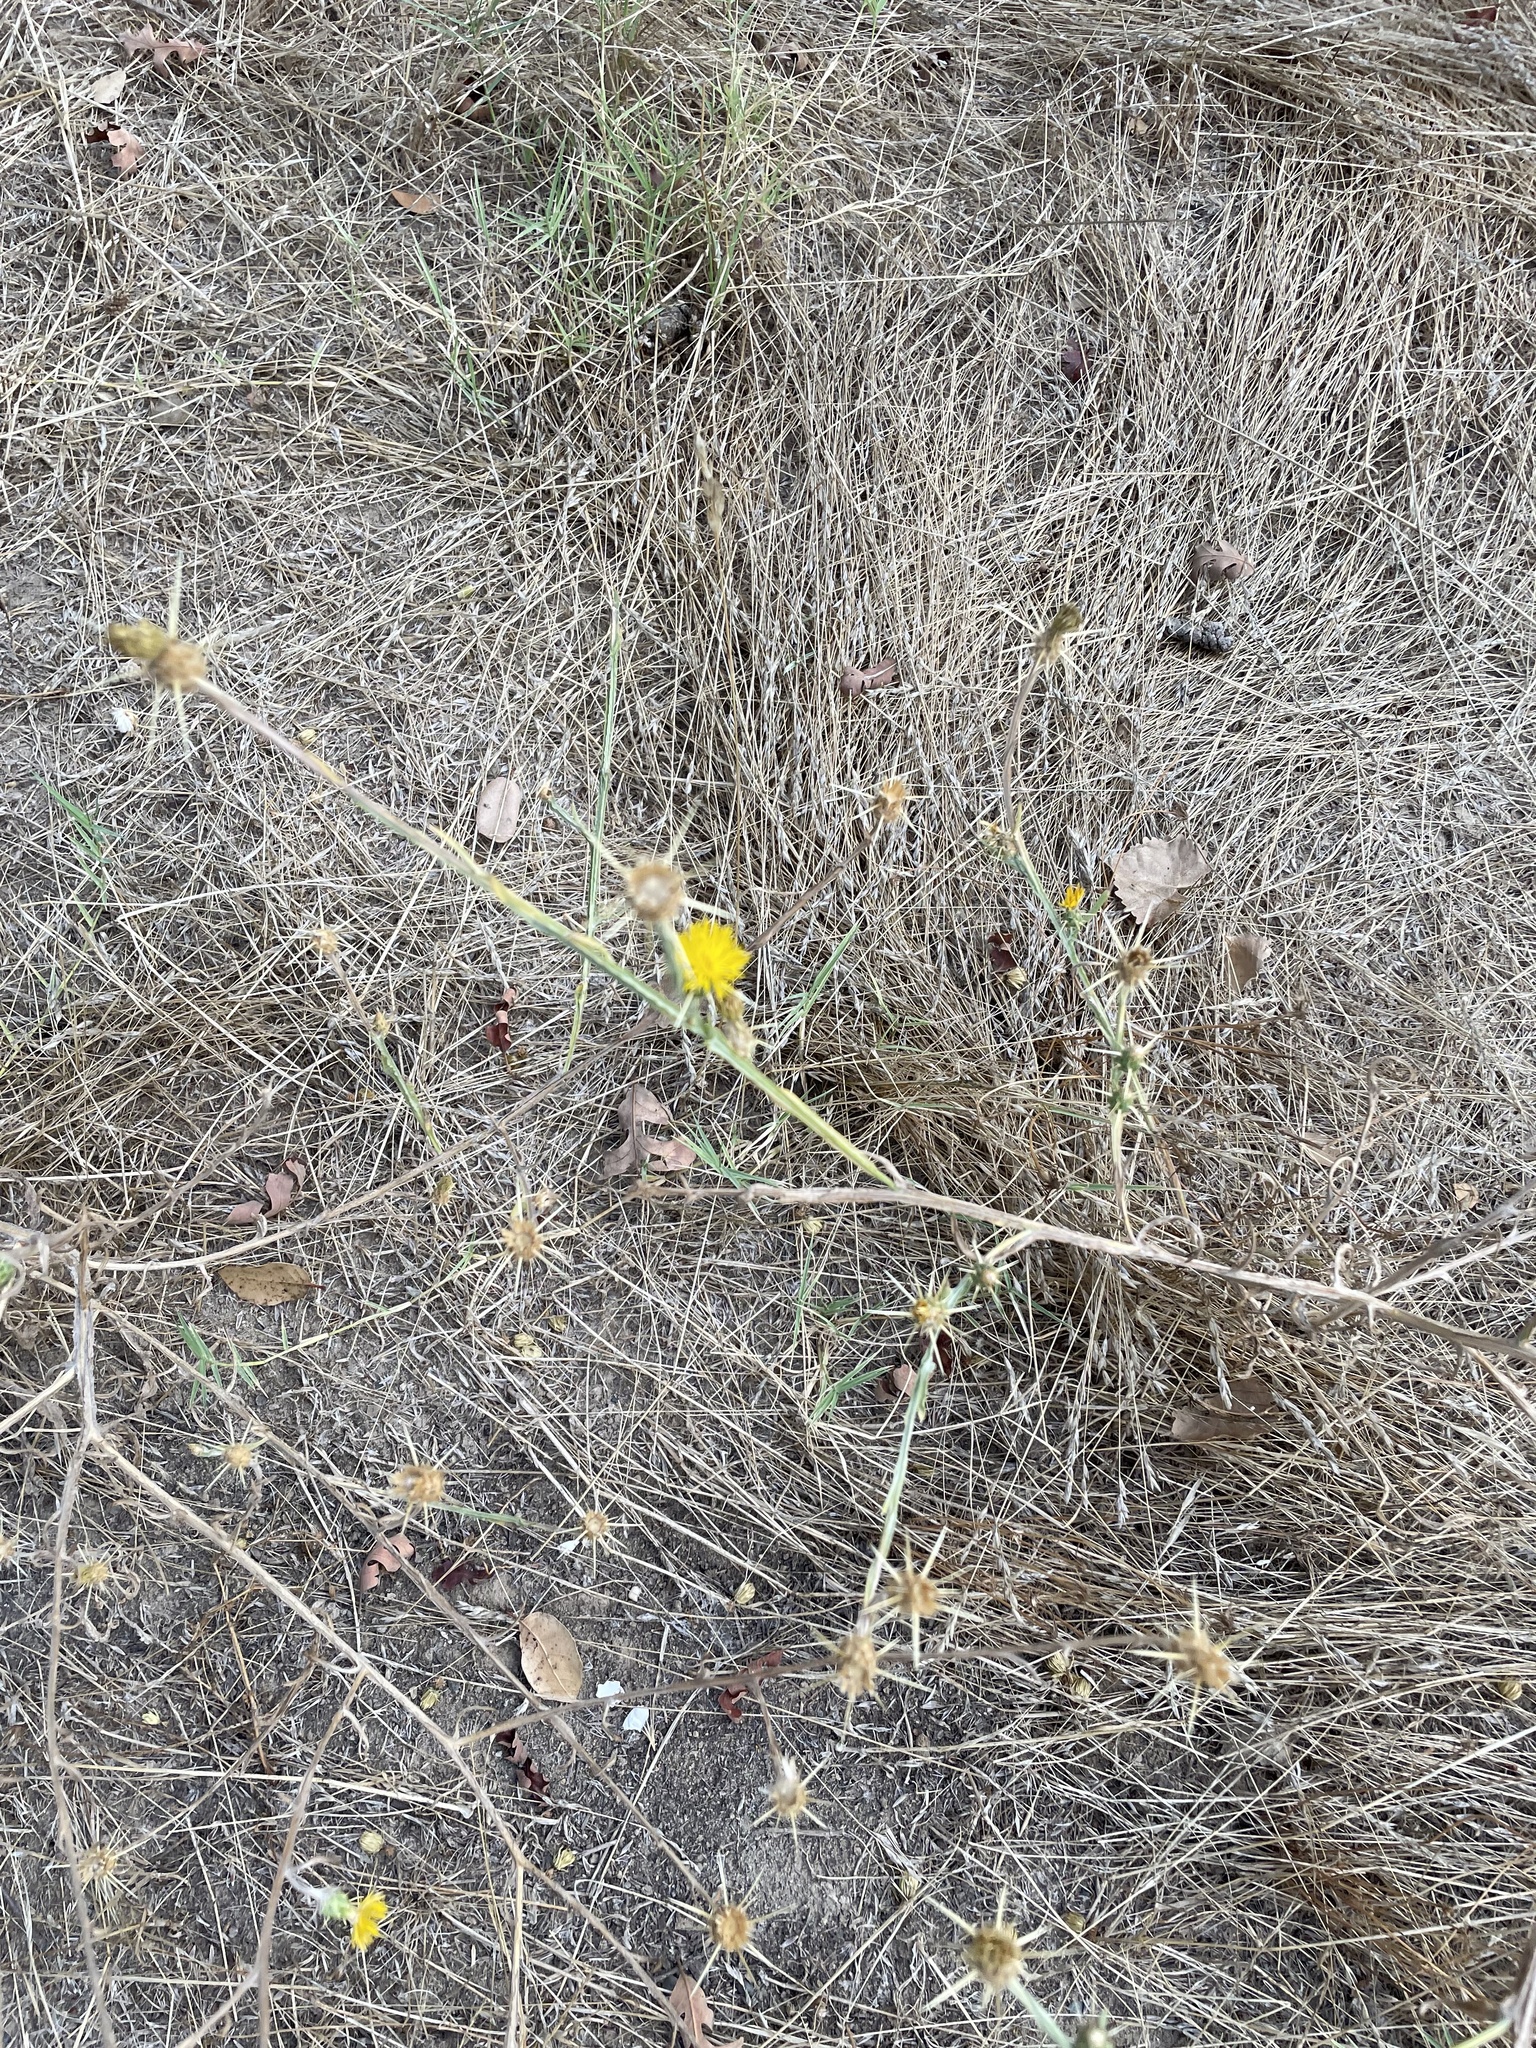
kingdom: Plantae
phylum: Tracheophyta
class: Magnoliopsida
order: Asterales
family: Asteraceae
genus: Centaurea
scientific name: Centaurea solstitialis
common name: Yellow star-thistle
